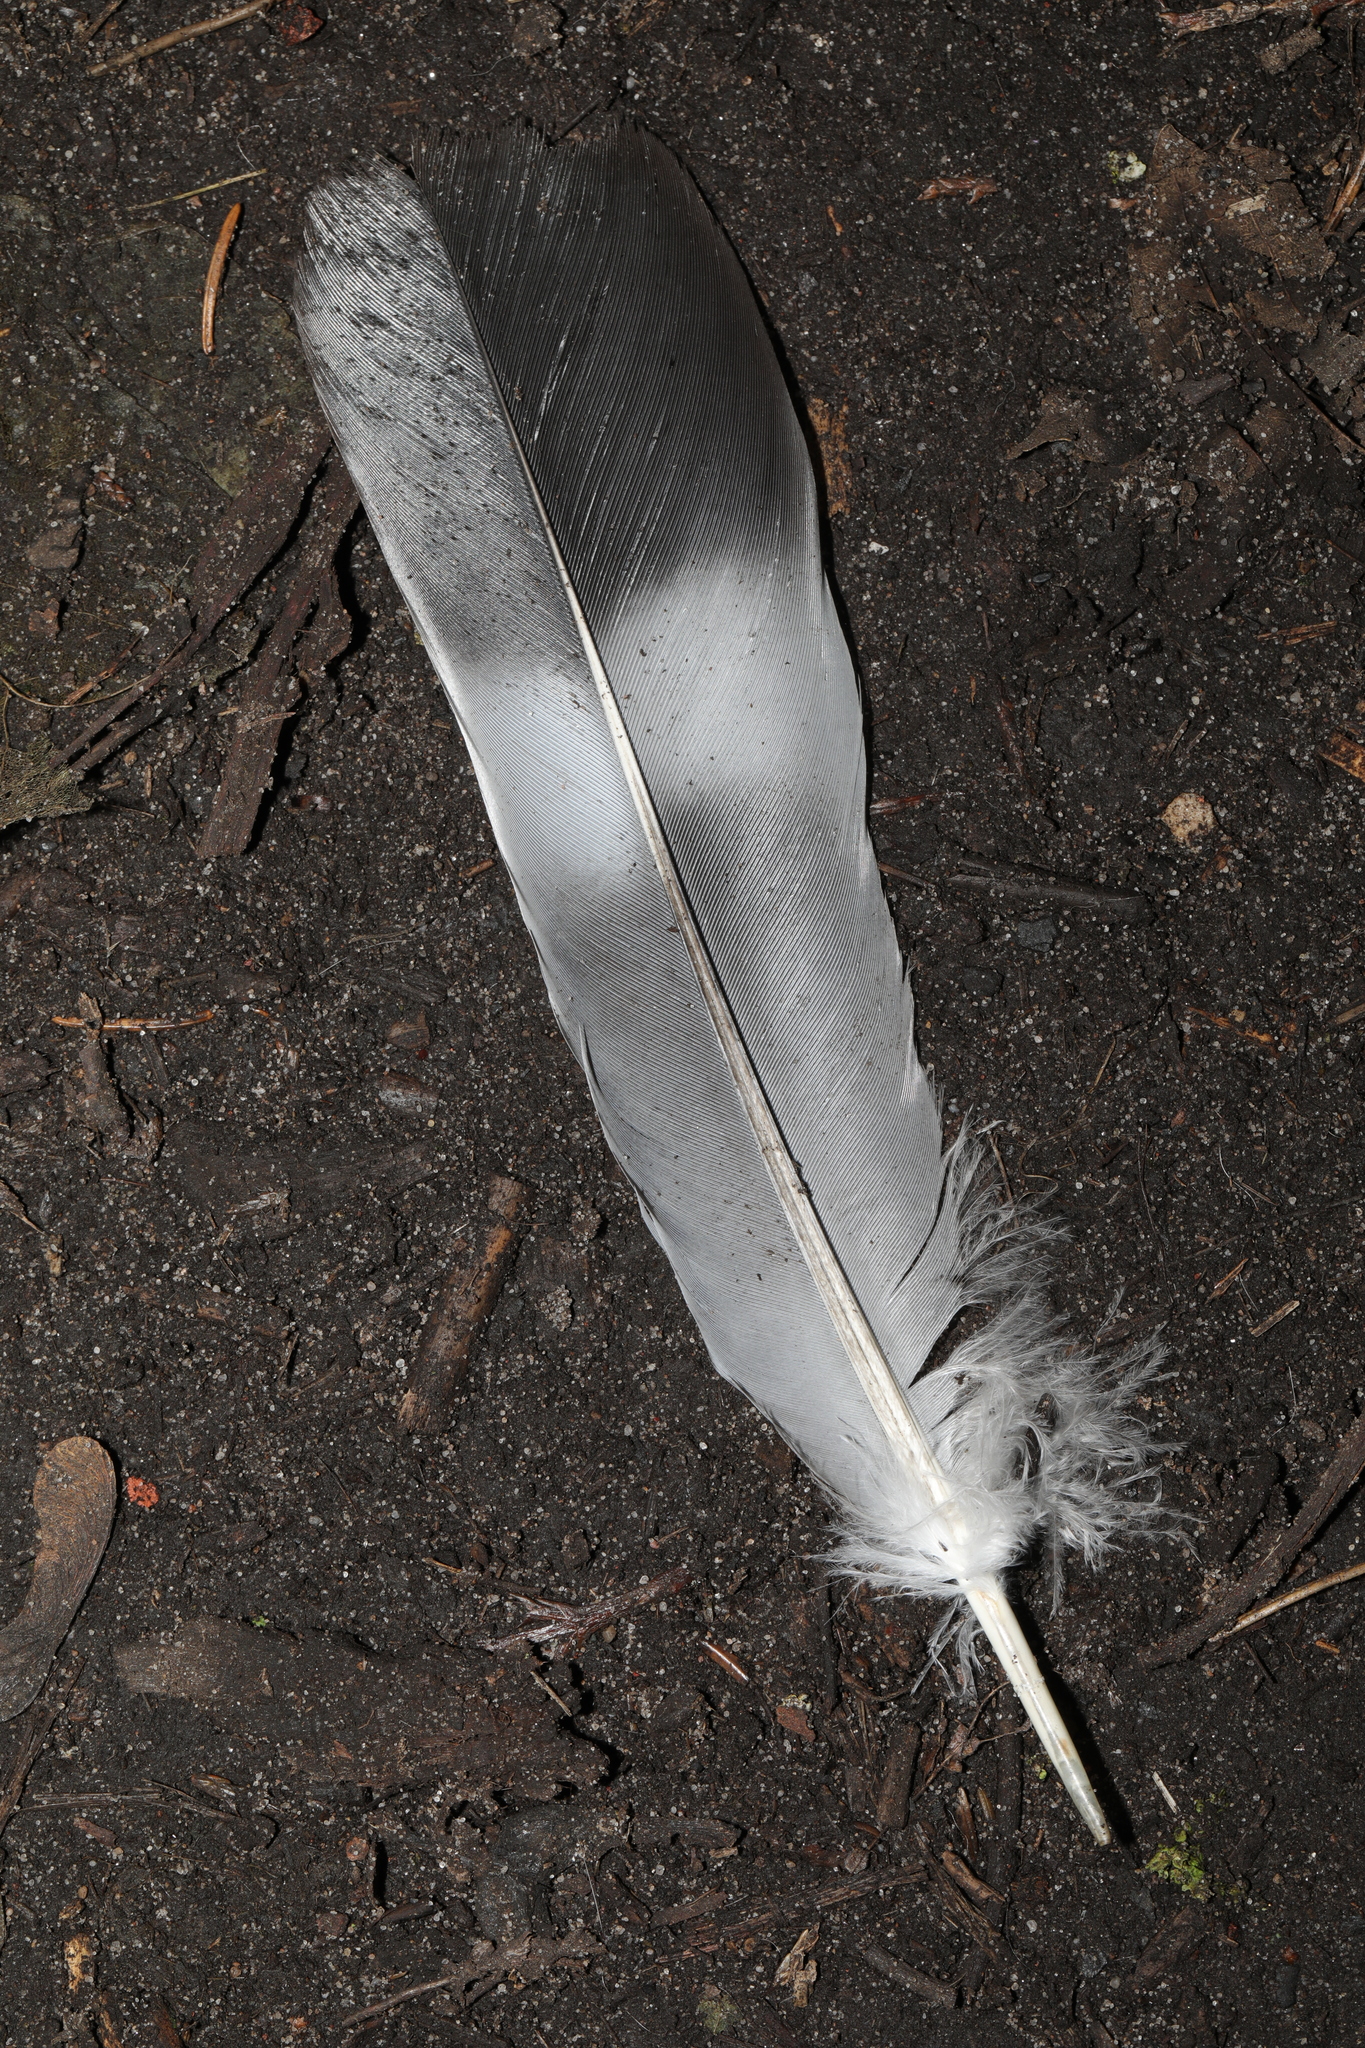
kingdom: Animalia
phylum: Chordata
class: Aves
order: Columbiformes
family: Columbidae
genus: Columba
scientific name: Columba palumbus
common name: Common wood pigeon
